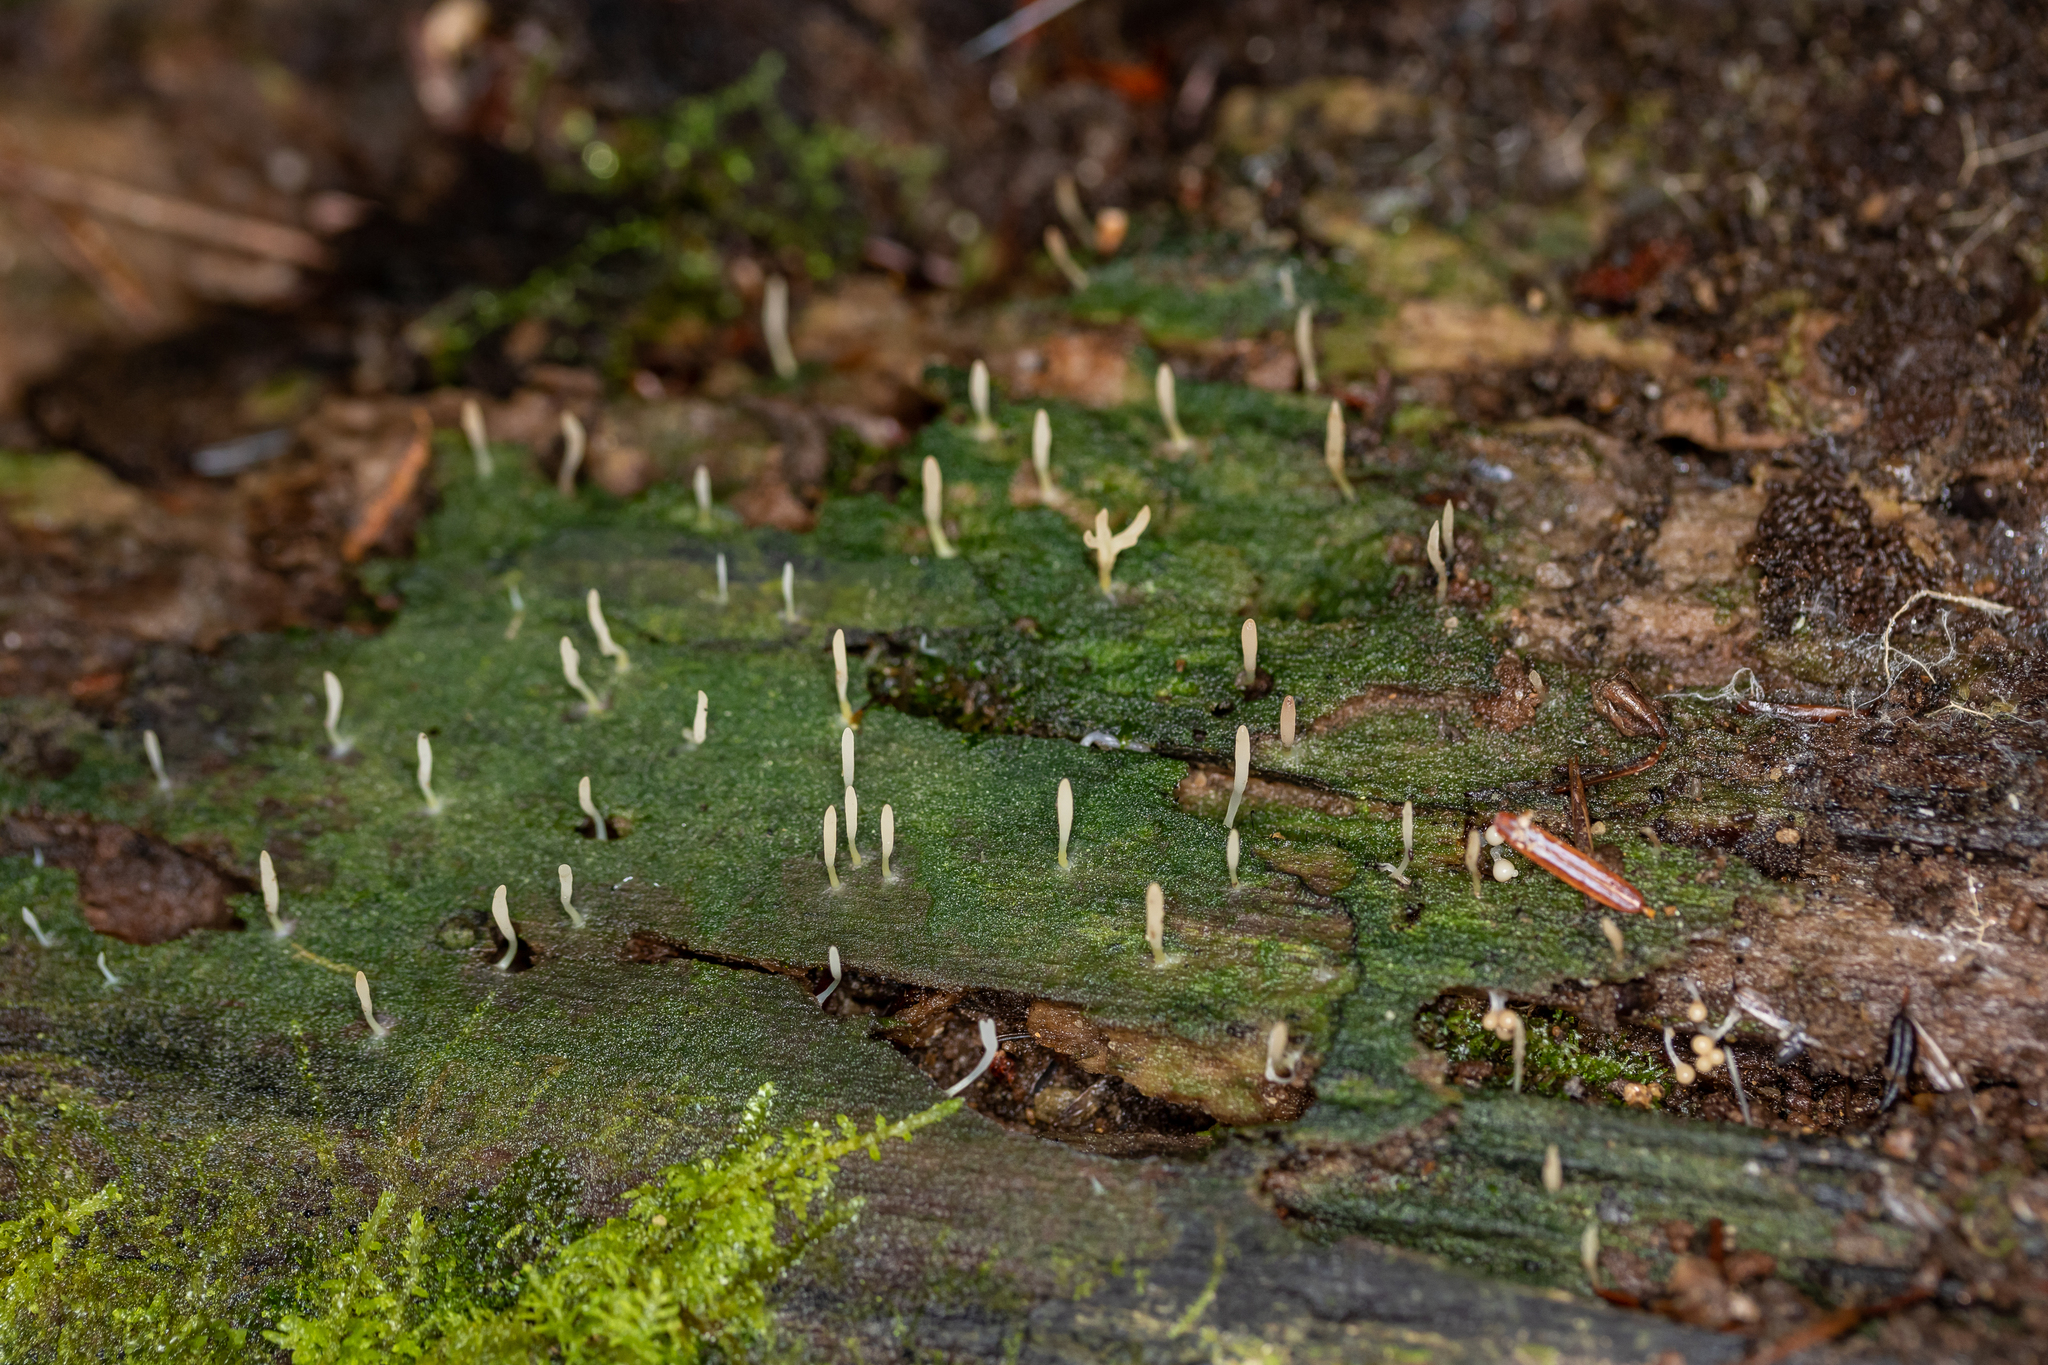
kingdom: Fungi
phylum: Basidiomycota
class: Agaricomycetes
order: Cantharellales
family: Hydnaceae
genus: Multiclavula
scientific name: Multiclavula mucida
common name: White green-algae coral
